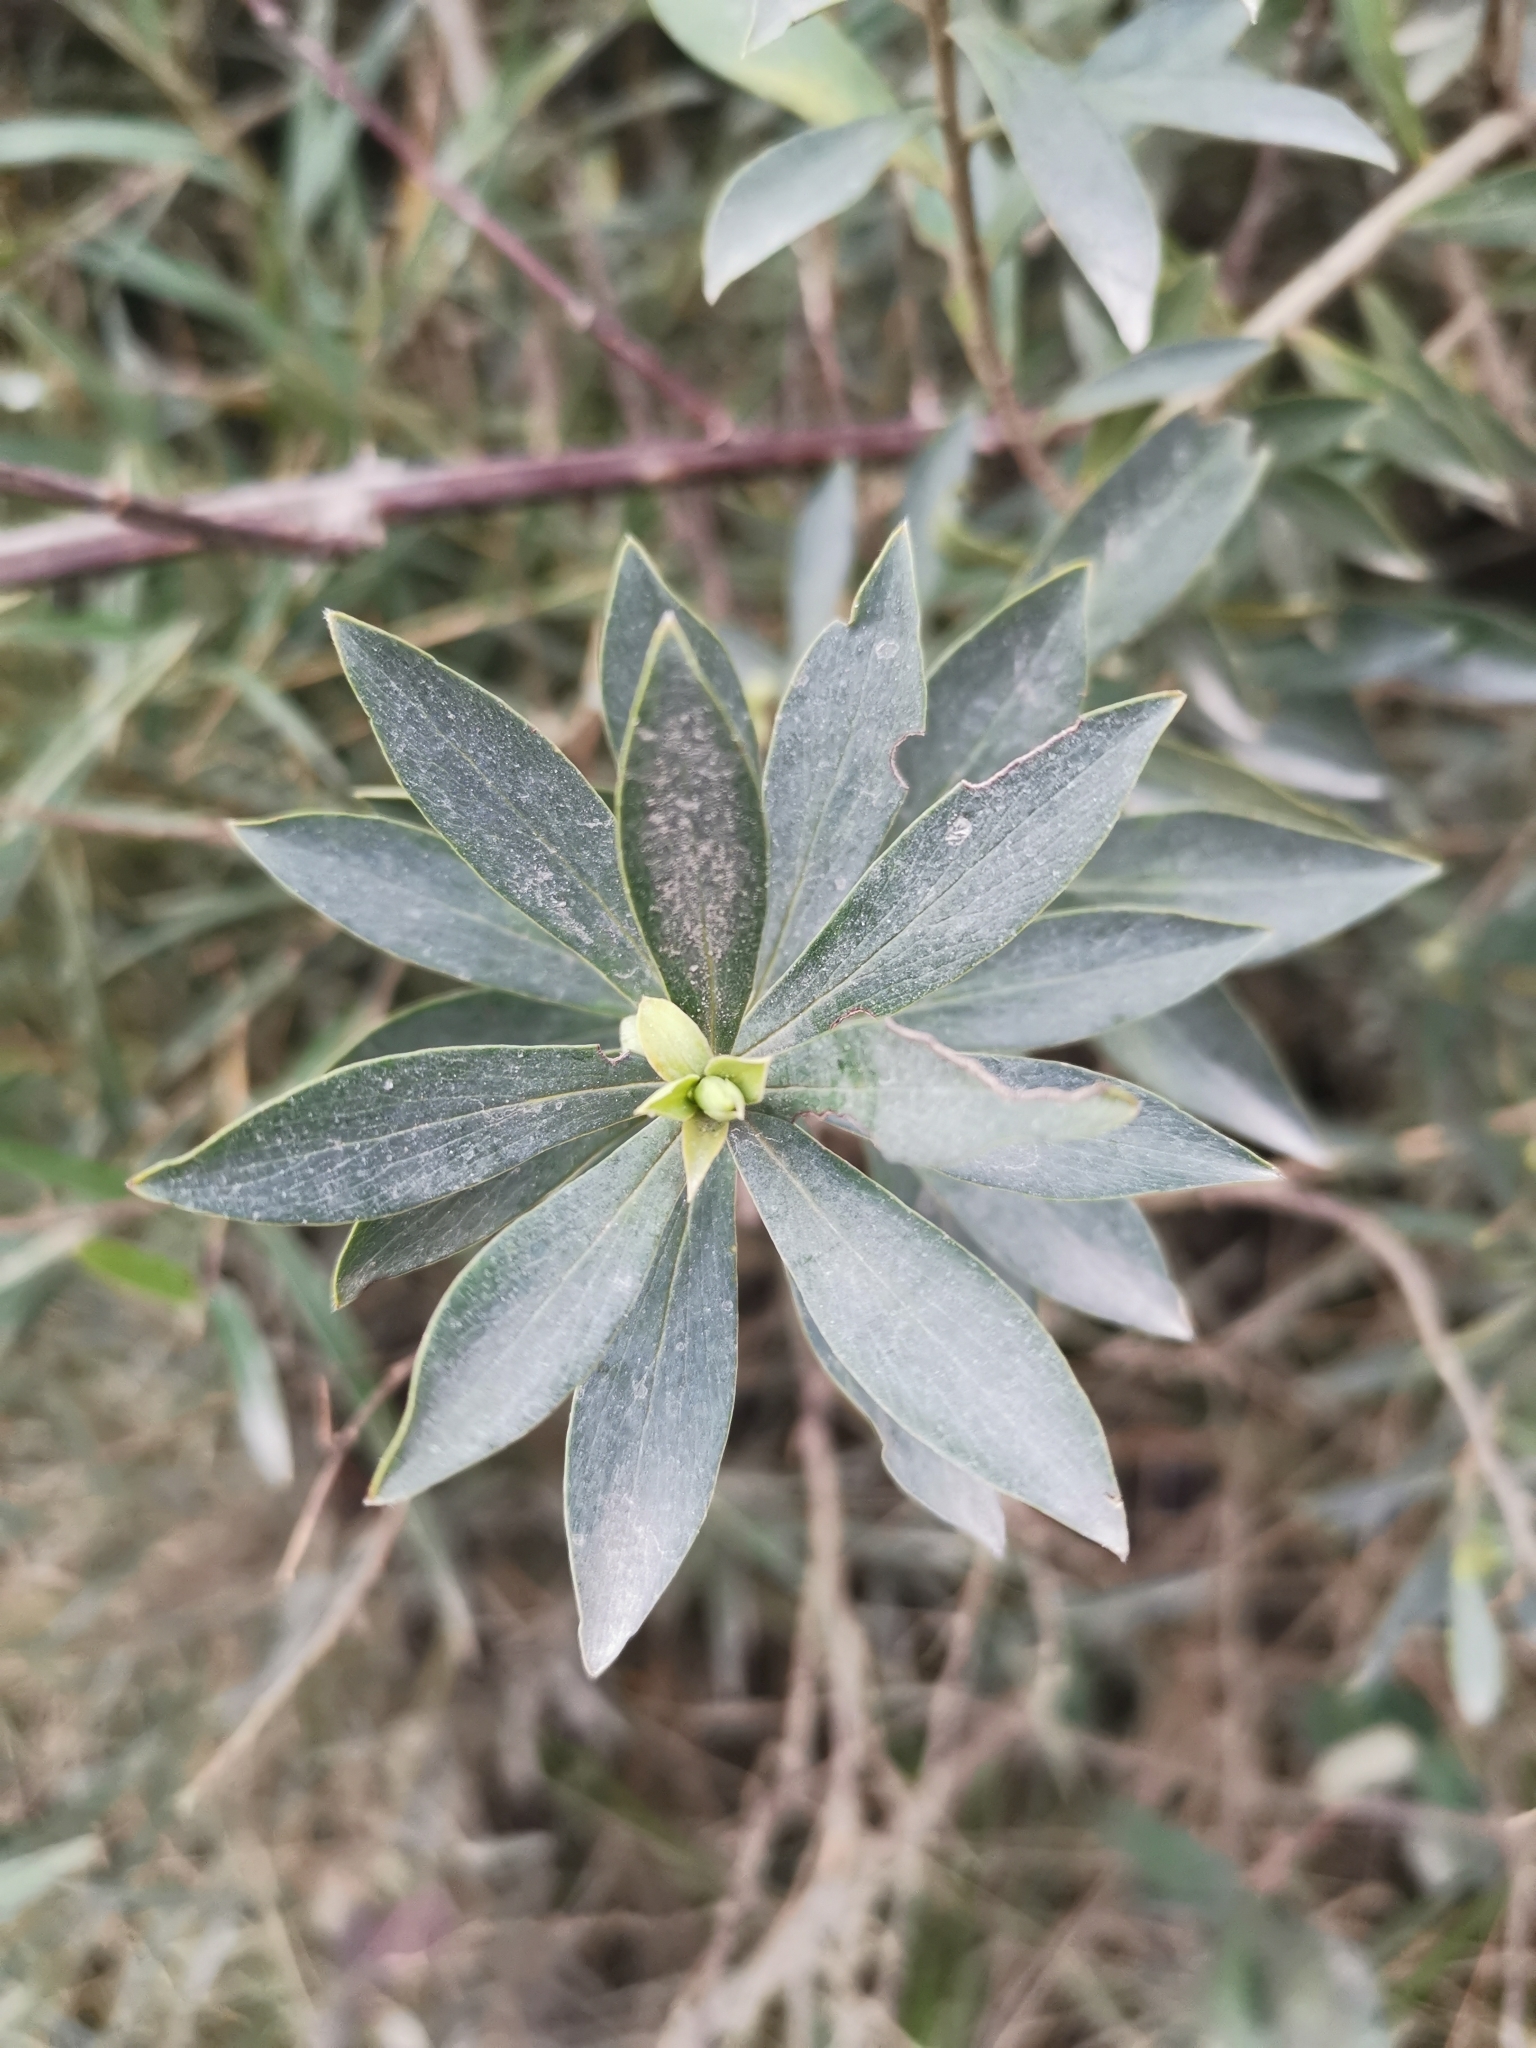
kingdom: Plantae
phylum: Tracheophyta
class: Magnoliopsida
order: Malvales
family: Thymelaeaceae
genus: Ovidia
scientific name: Ovidia andina
